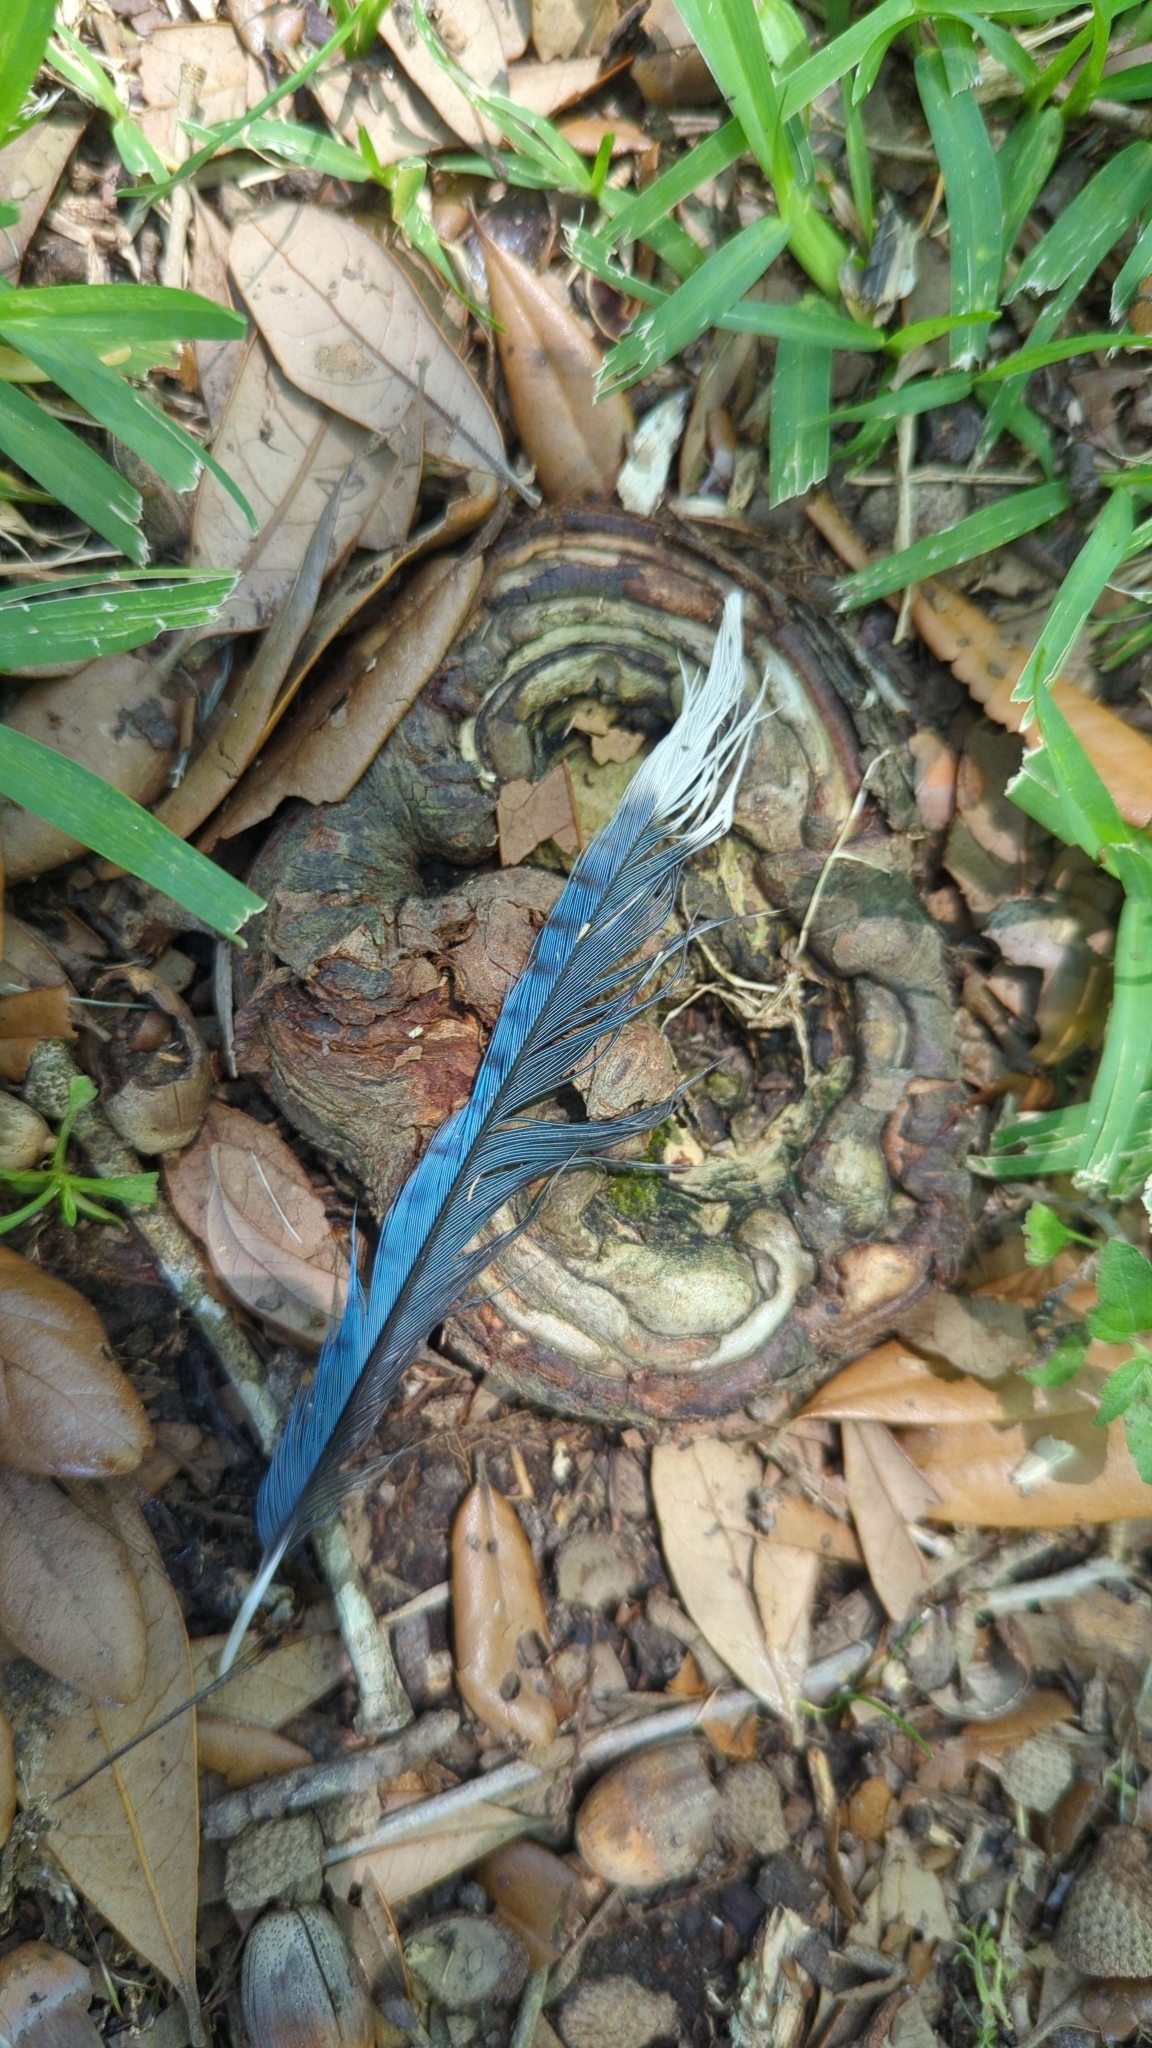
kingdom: Animalia
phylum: Chordata
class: Aves
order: Passeriformes
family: Corvidae
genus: Cyanocitta
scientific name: Cyanocitta cristata
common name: Blue jay
